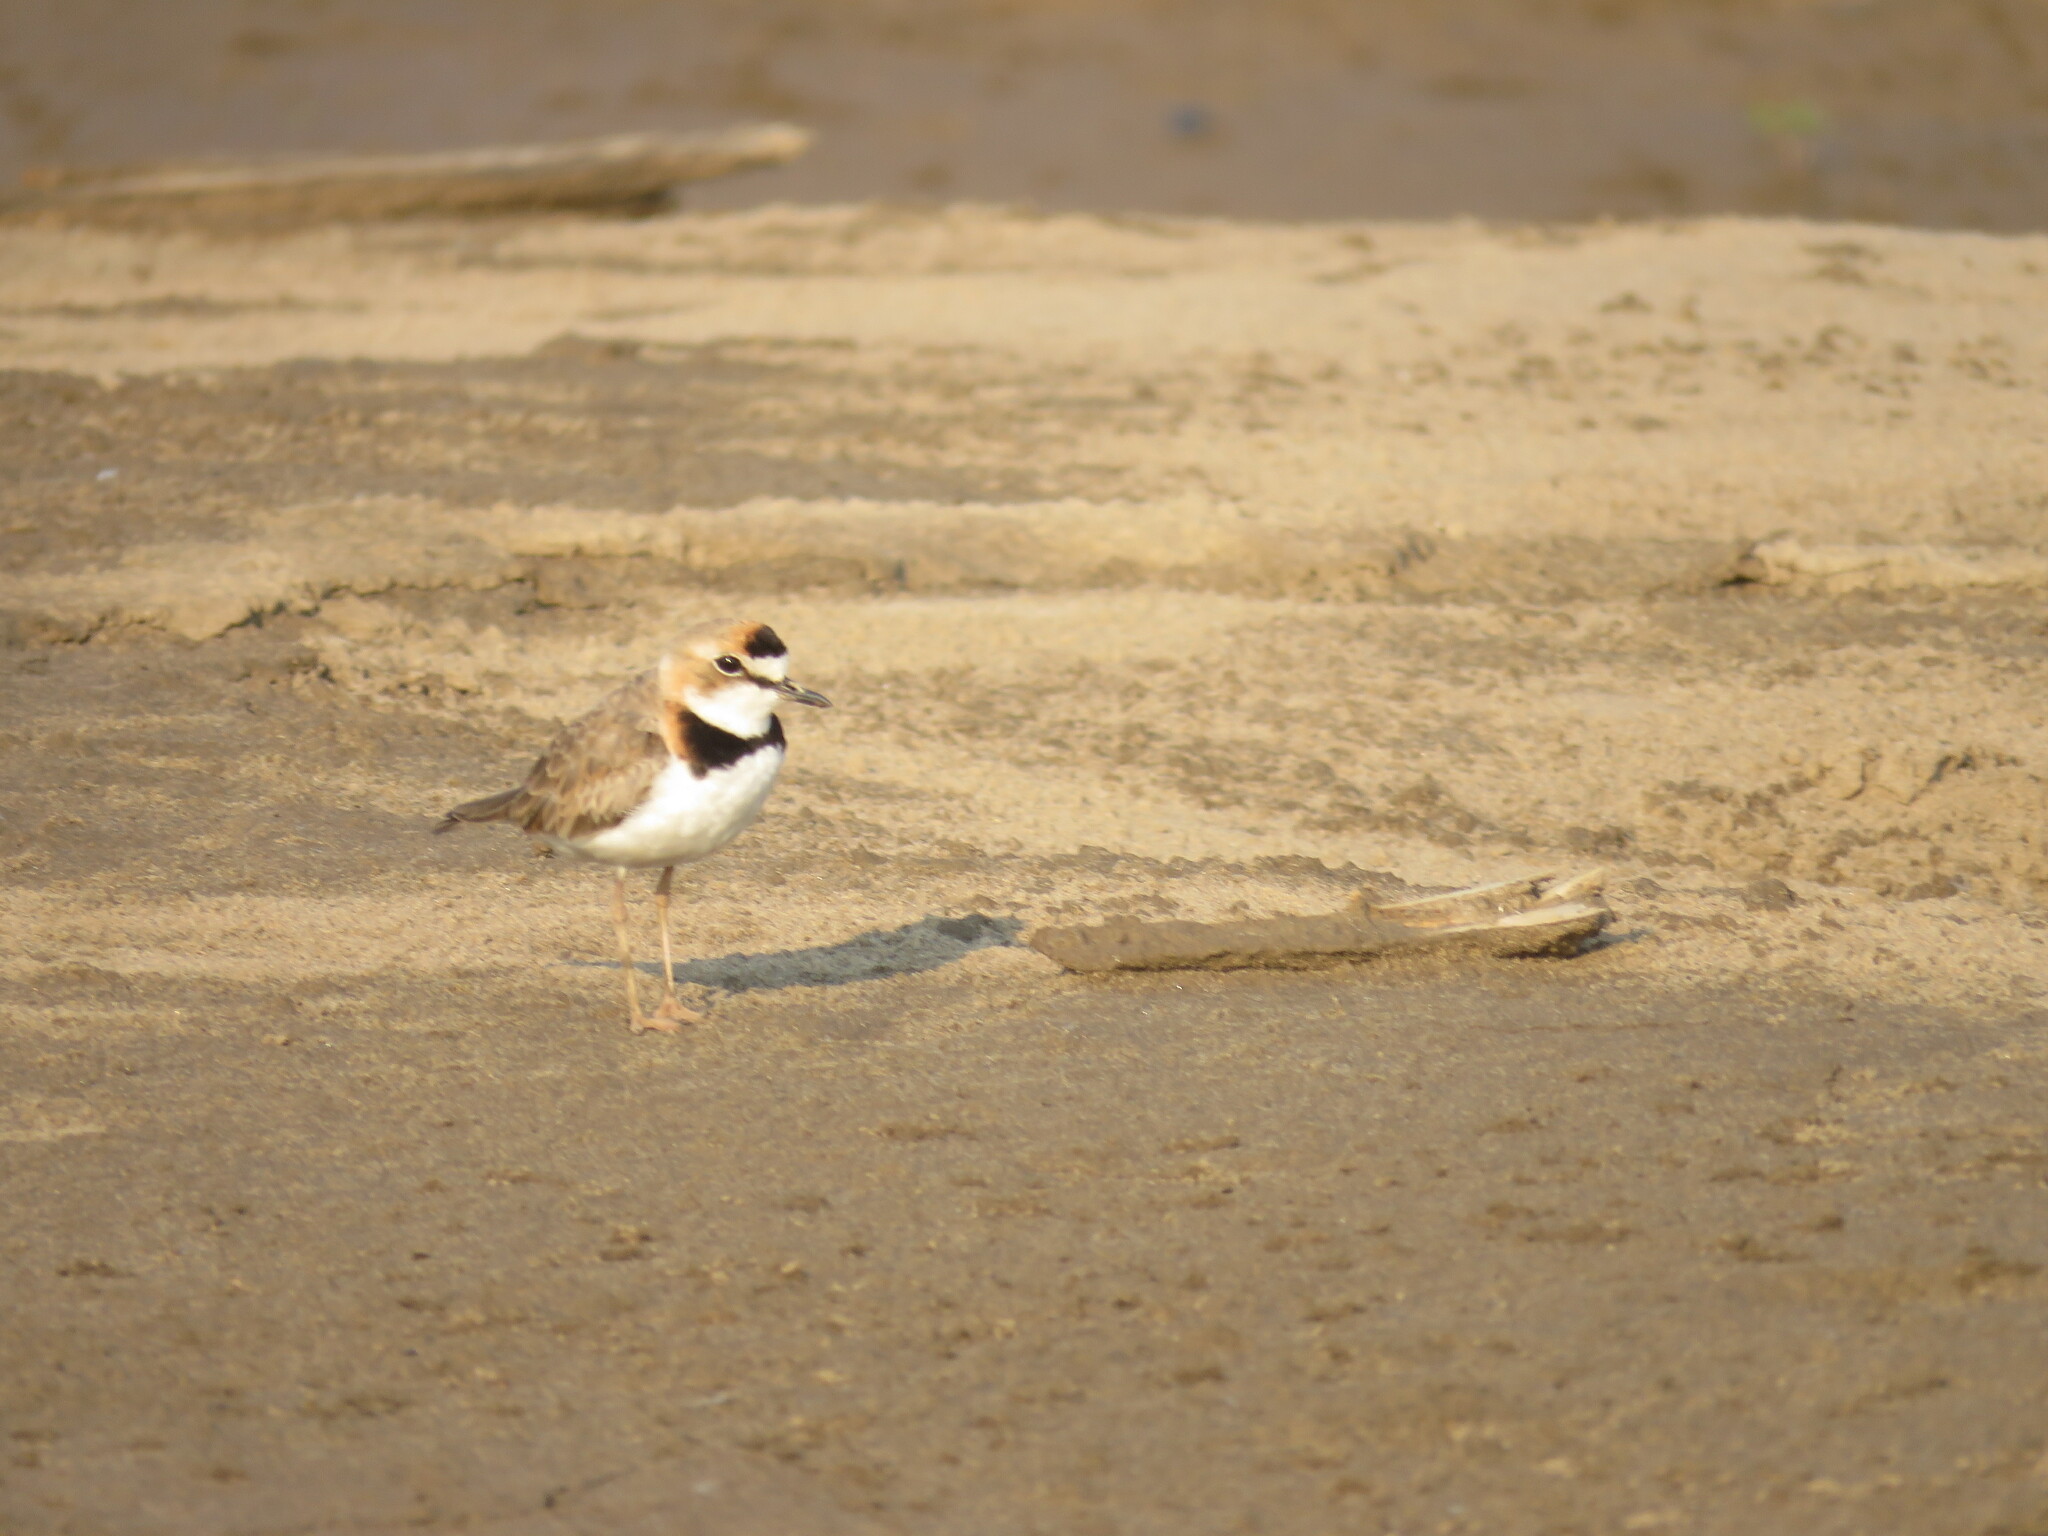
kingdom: Animalia
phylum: Chordata
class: Aves
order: Charadriiformes
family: Charadriidae
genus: Anarhynchus
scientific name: Anarhynchus
